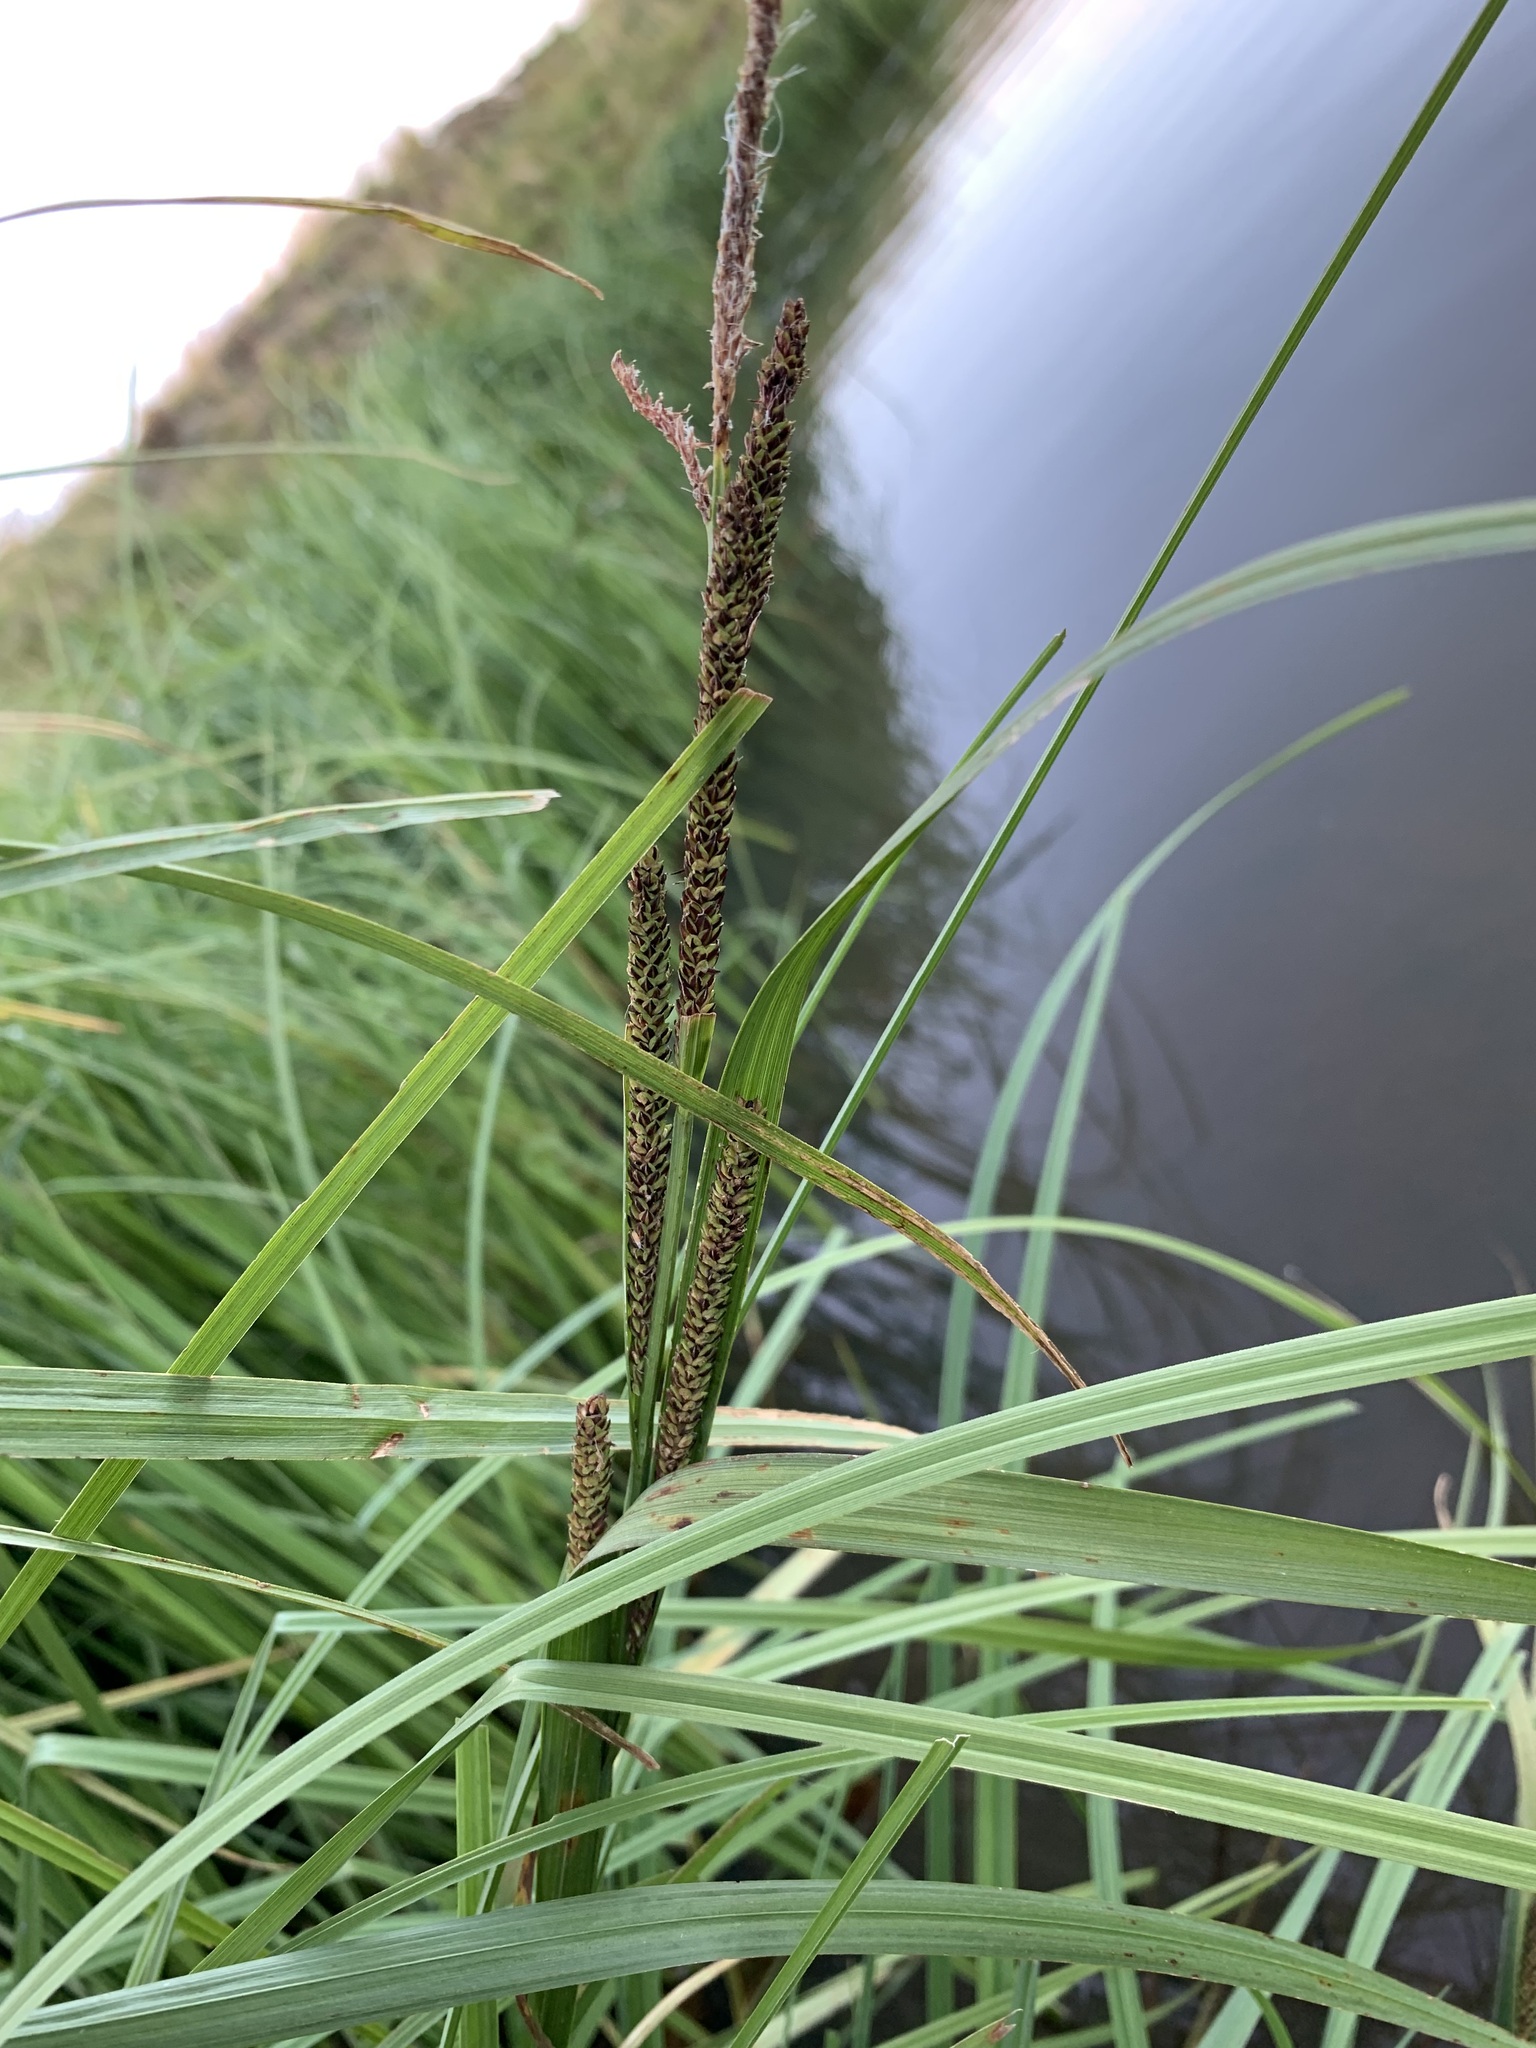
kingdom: Plantae
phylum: Tracheophyta
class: Liliopsida
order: Poales
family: Cyperaceae
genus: Carex
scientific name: Carex aquatilis
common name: Water sedge
